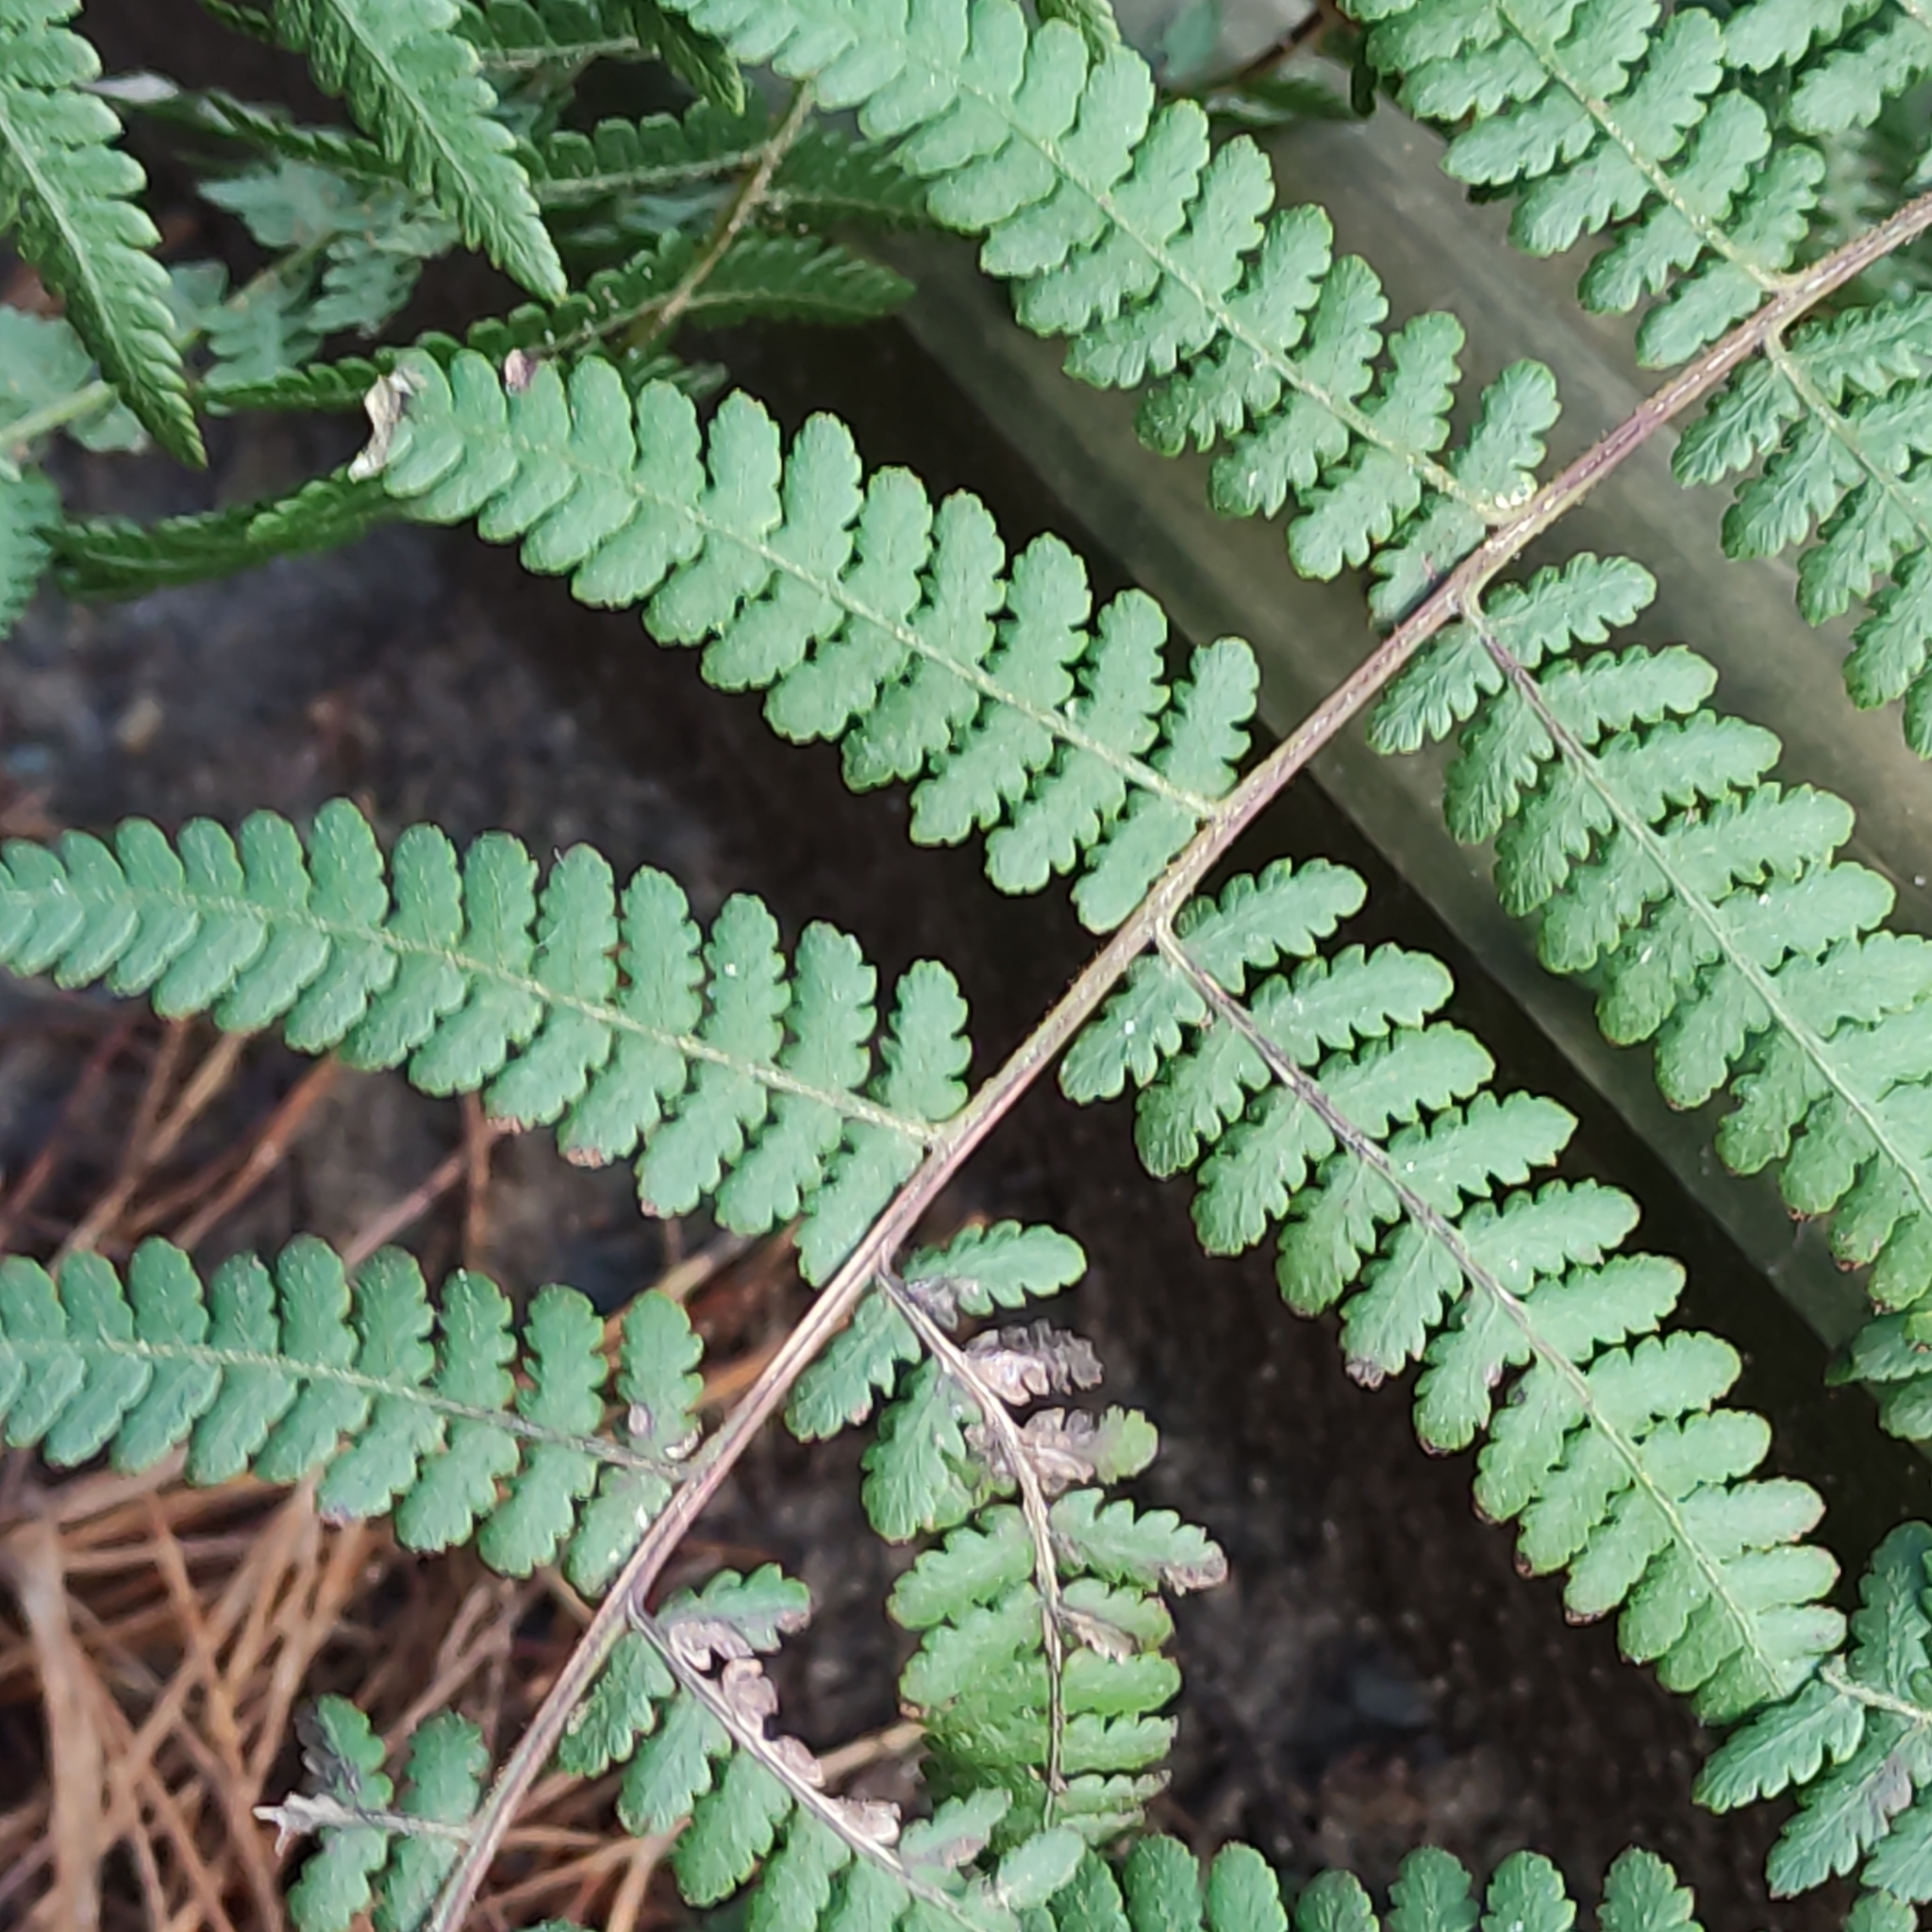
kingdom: Plantae
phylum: Tracheophyta
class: Polypodiopsida
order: Polypodiales
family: Dennstaedtiaceae
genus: Hypolepis
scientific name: Hypolepis ambigua
